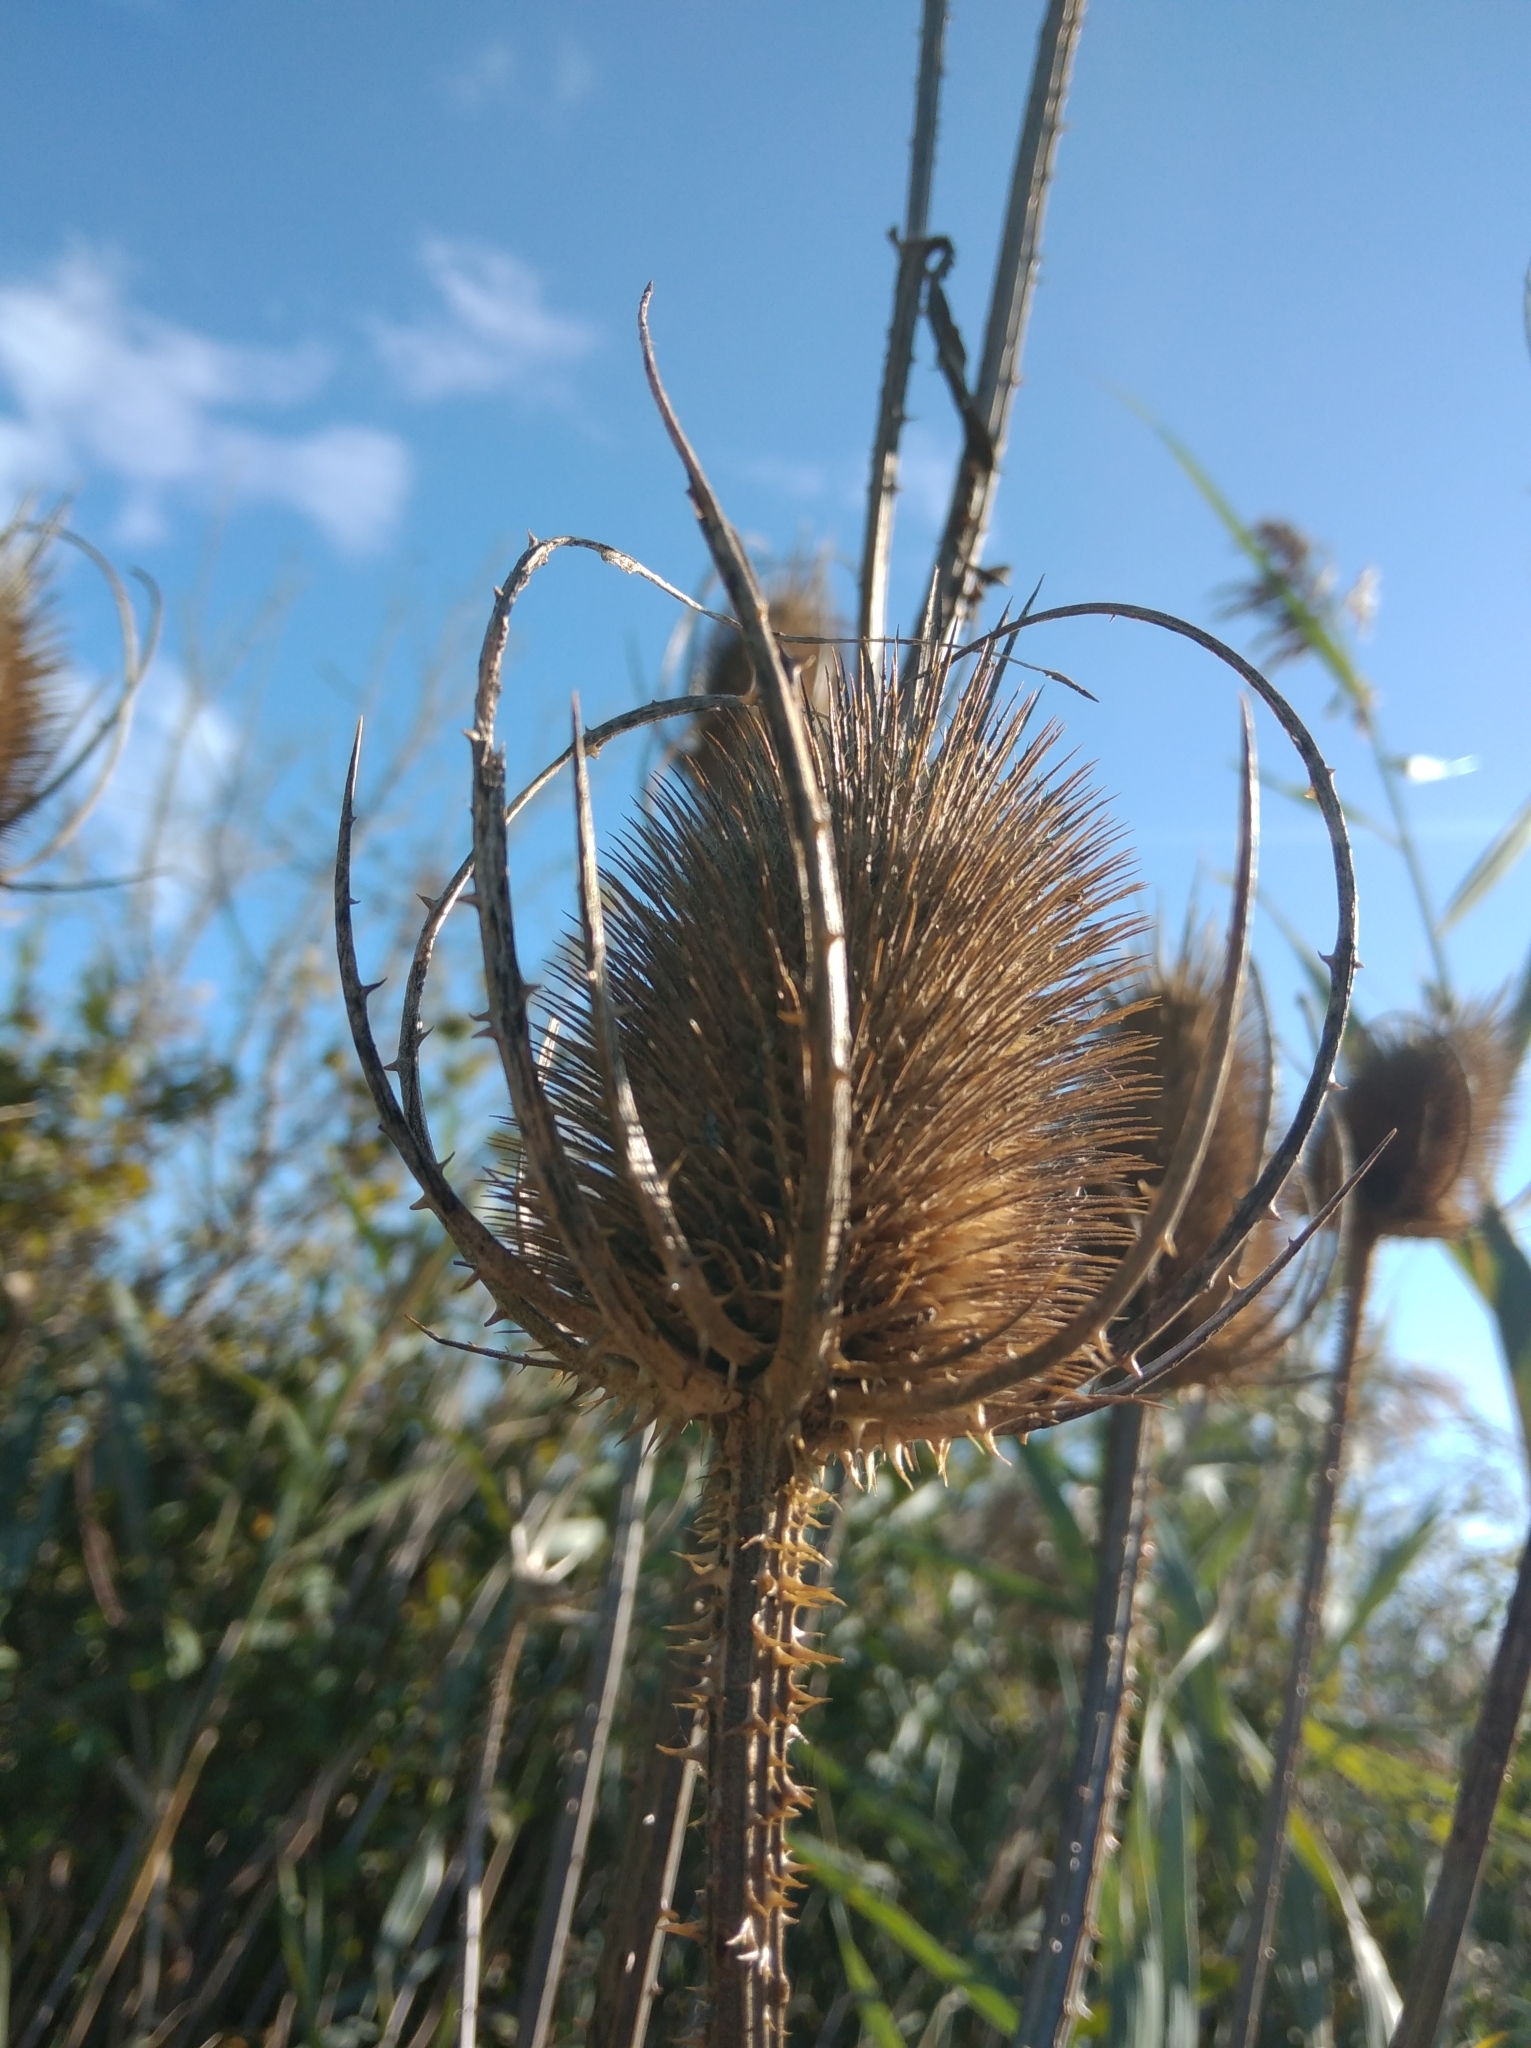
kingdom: Plantae
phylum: Tracheophyta
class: Magnoliopsida
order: Dipsacales
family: Caprifoliaceae
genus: Dipsacus
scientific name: Dipsacus fullonum
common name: Teasel
